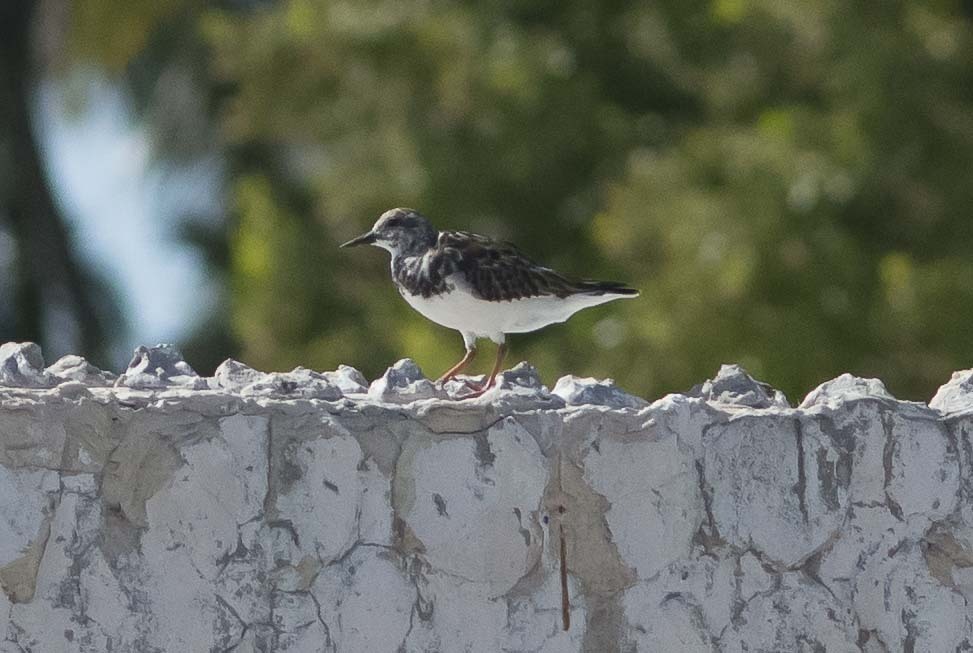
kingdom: Animalia
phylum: Chordata
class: Aves
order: Charadriiformes
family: Scolopacidae
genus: Arenaria
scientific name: Arenaria interpres
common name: Ruddy turnstone
